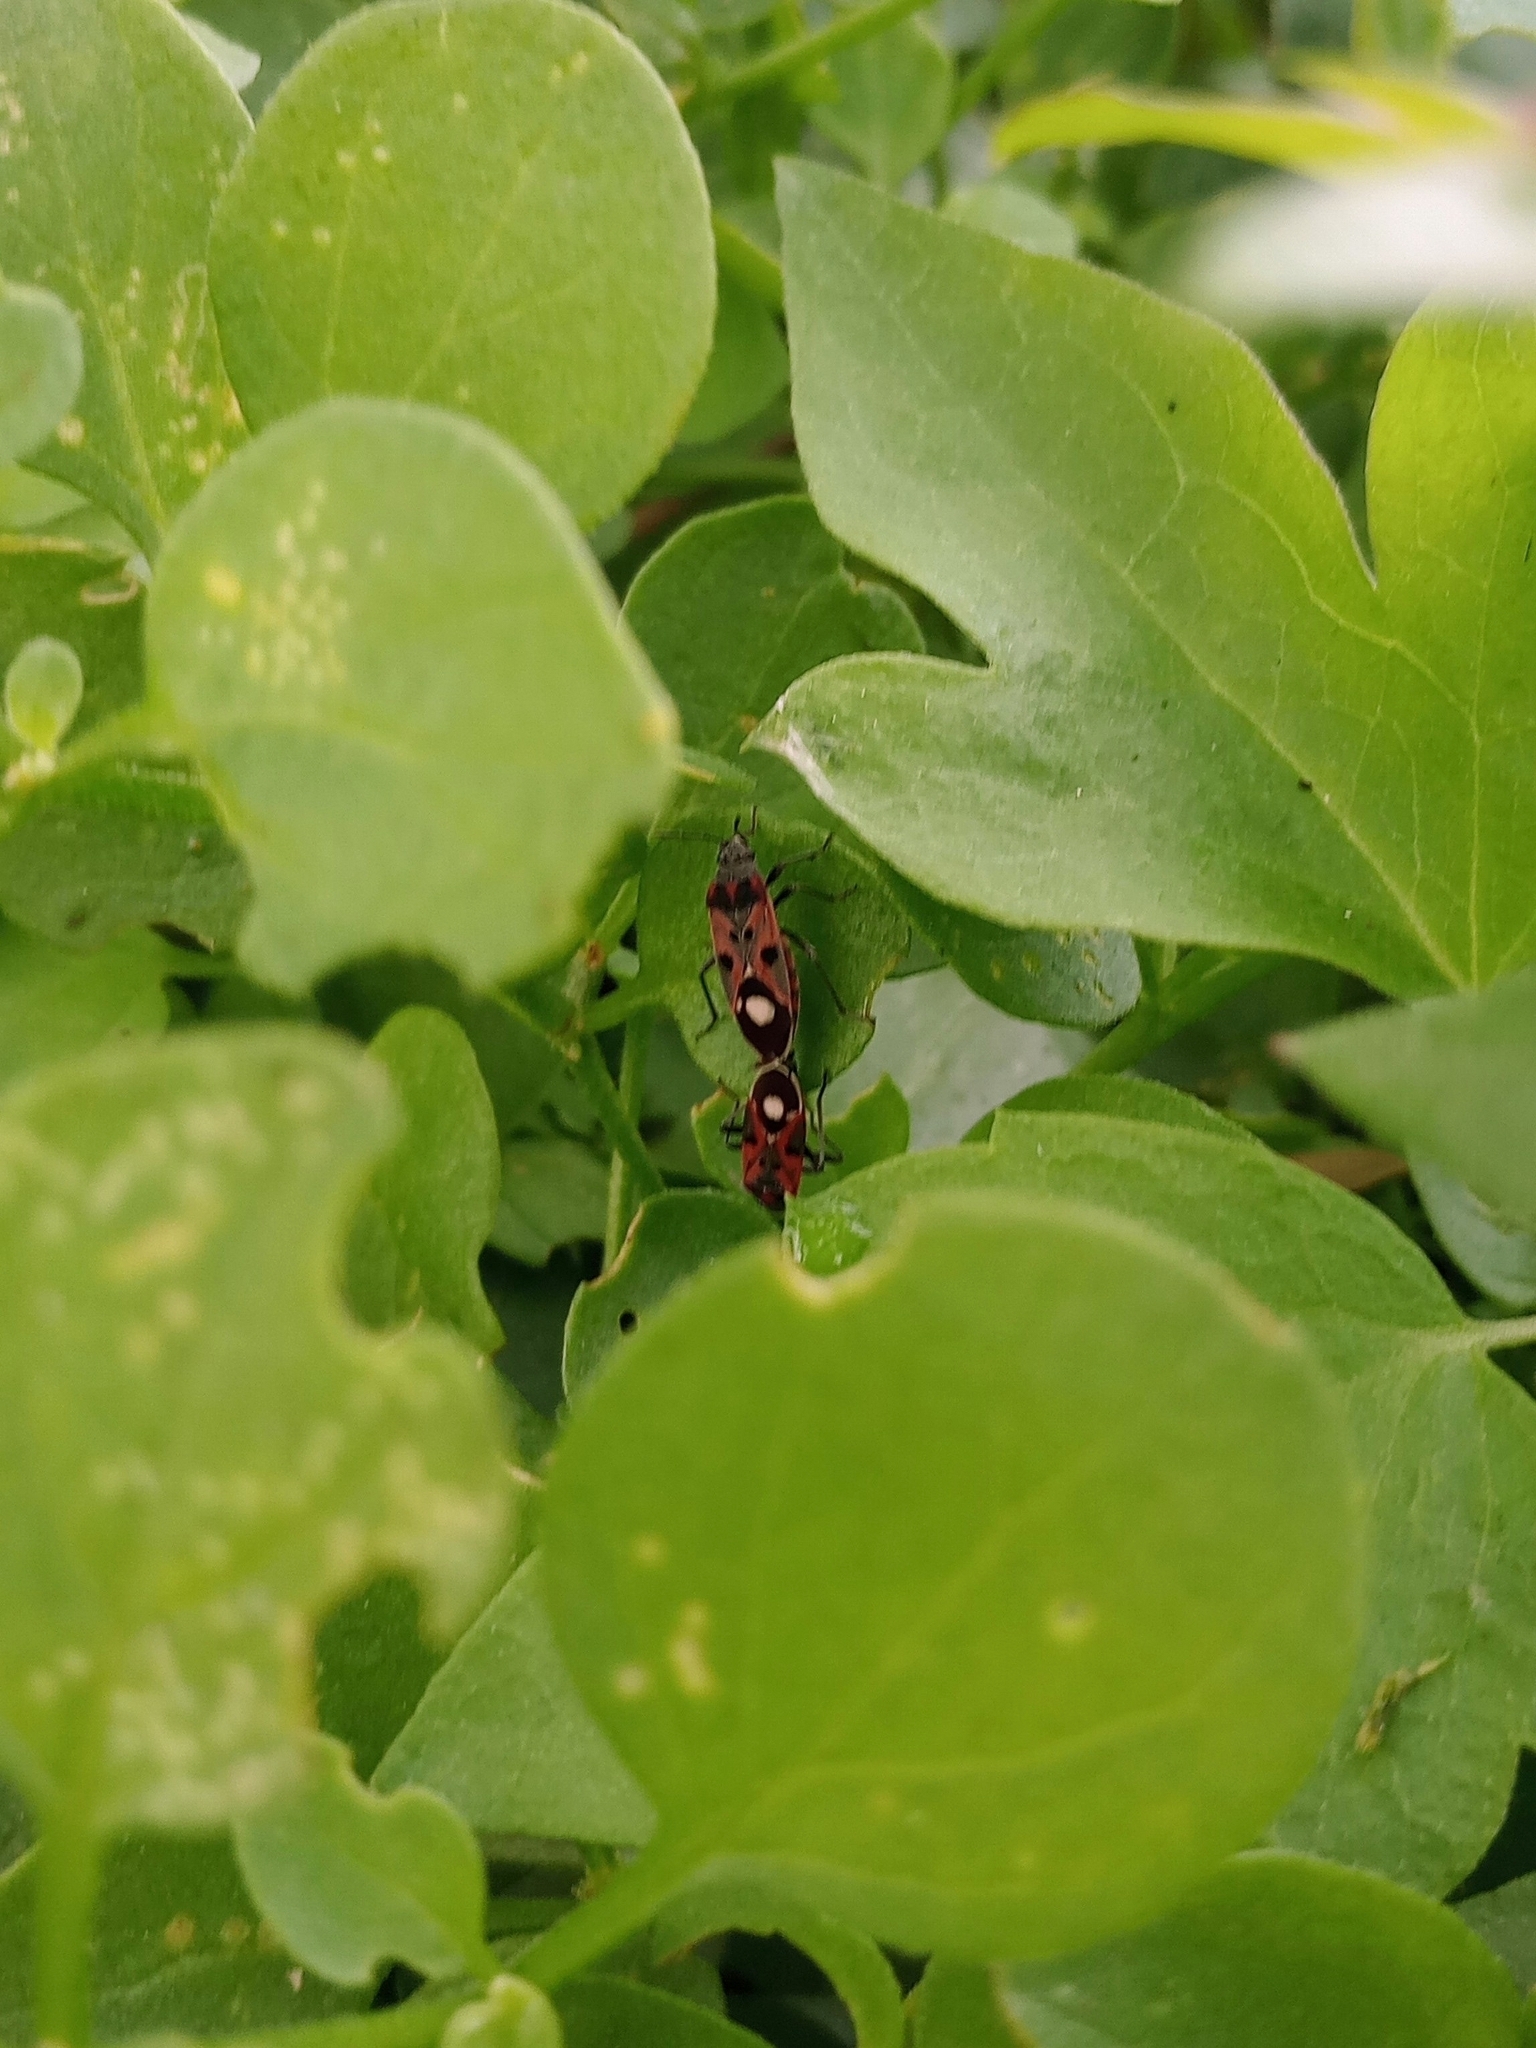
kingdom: Animalia
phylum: Arthropoda
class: Insecta
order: Hemiptera
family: Lygaeidae
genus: Lygaeus
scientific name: Lygaeus alboornatus
